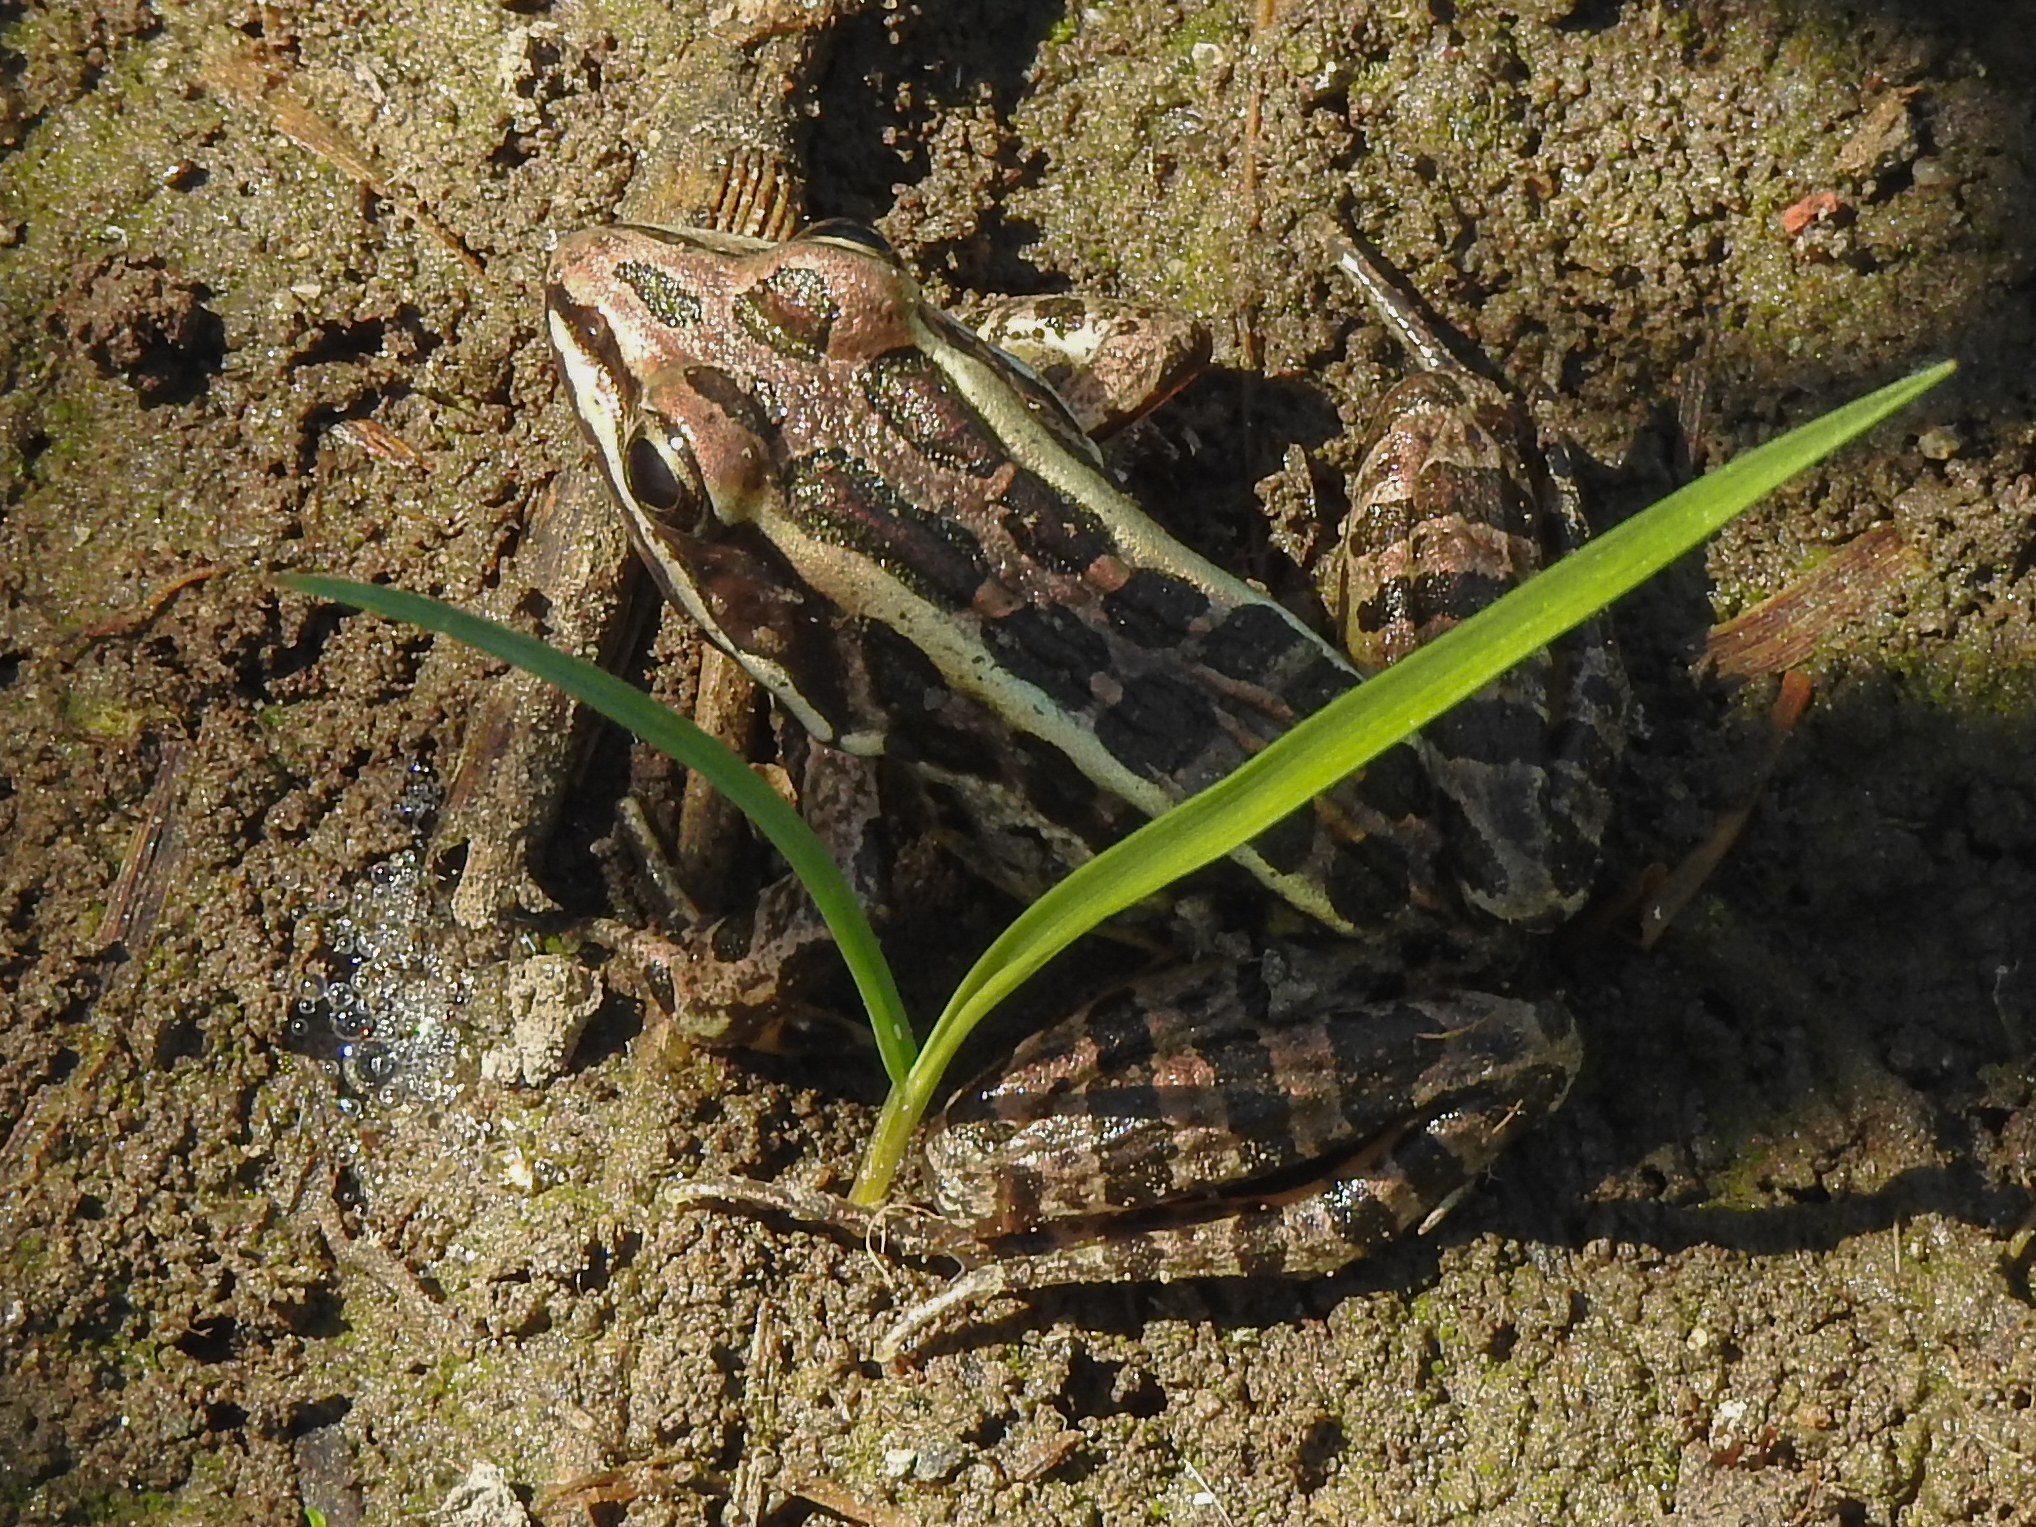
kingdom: Animalia
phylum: Chordata
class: Amphibia
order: Anura
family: Ranidae
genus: Lithobates
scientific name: Lithobates palustris
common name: Pickerel frog
